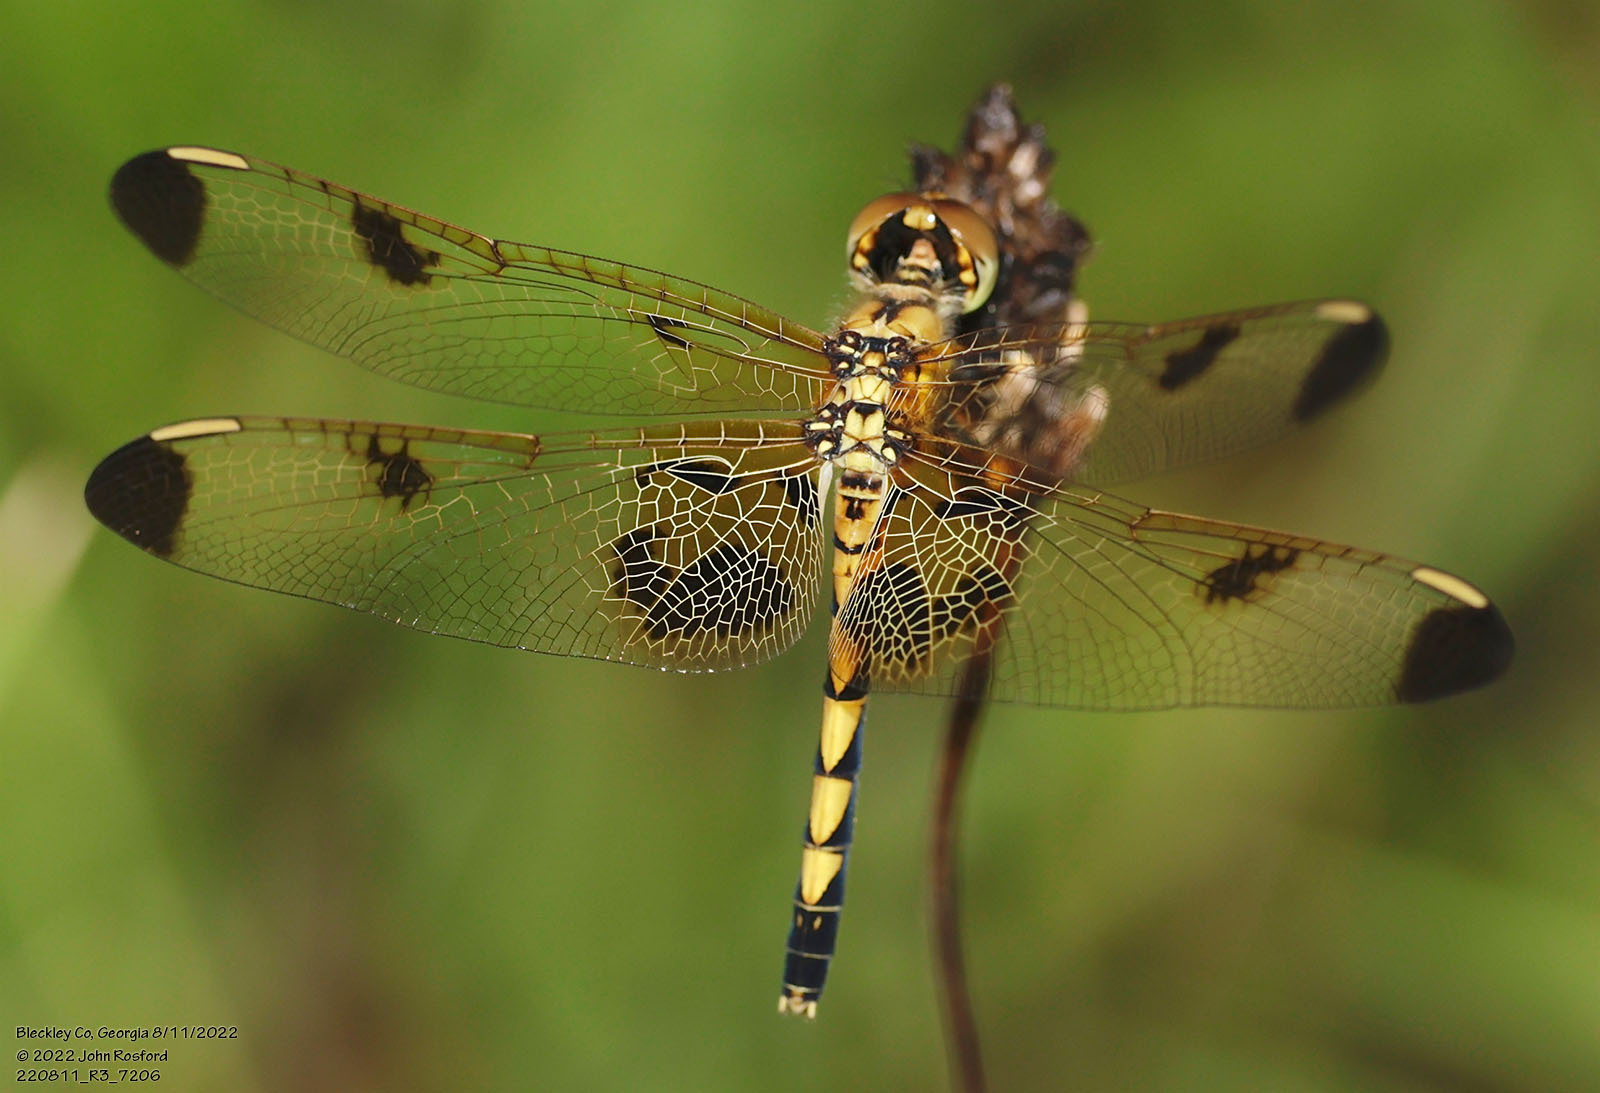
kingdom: Animalia
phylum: Arthropoda
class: Insecta
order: Odonata
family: Libellulidae
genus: Celithemis
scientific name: Celithemis elisa
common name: Calico pennant
